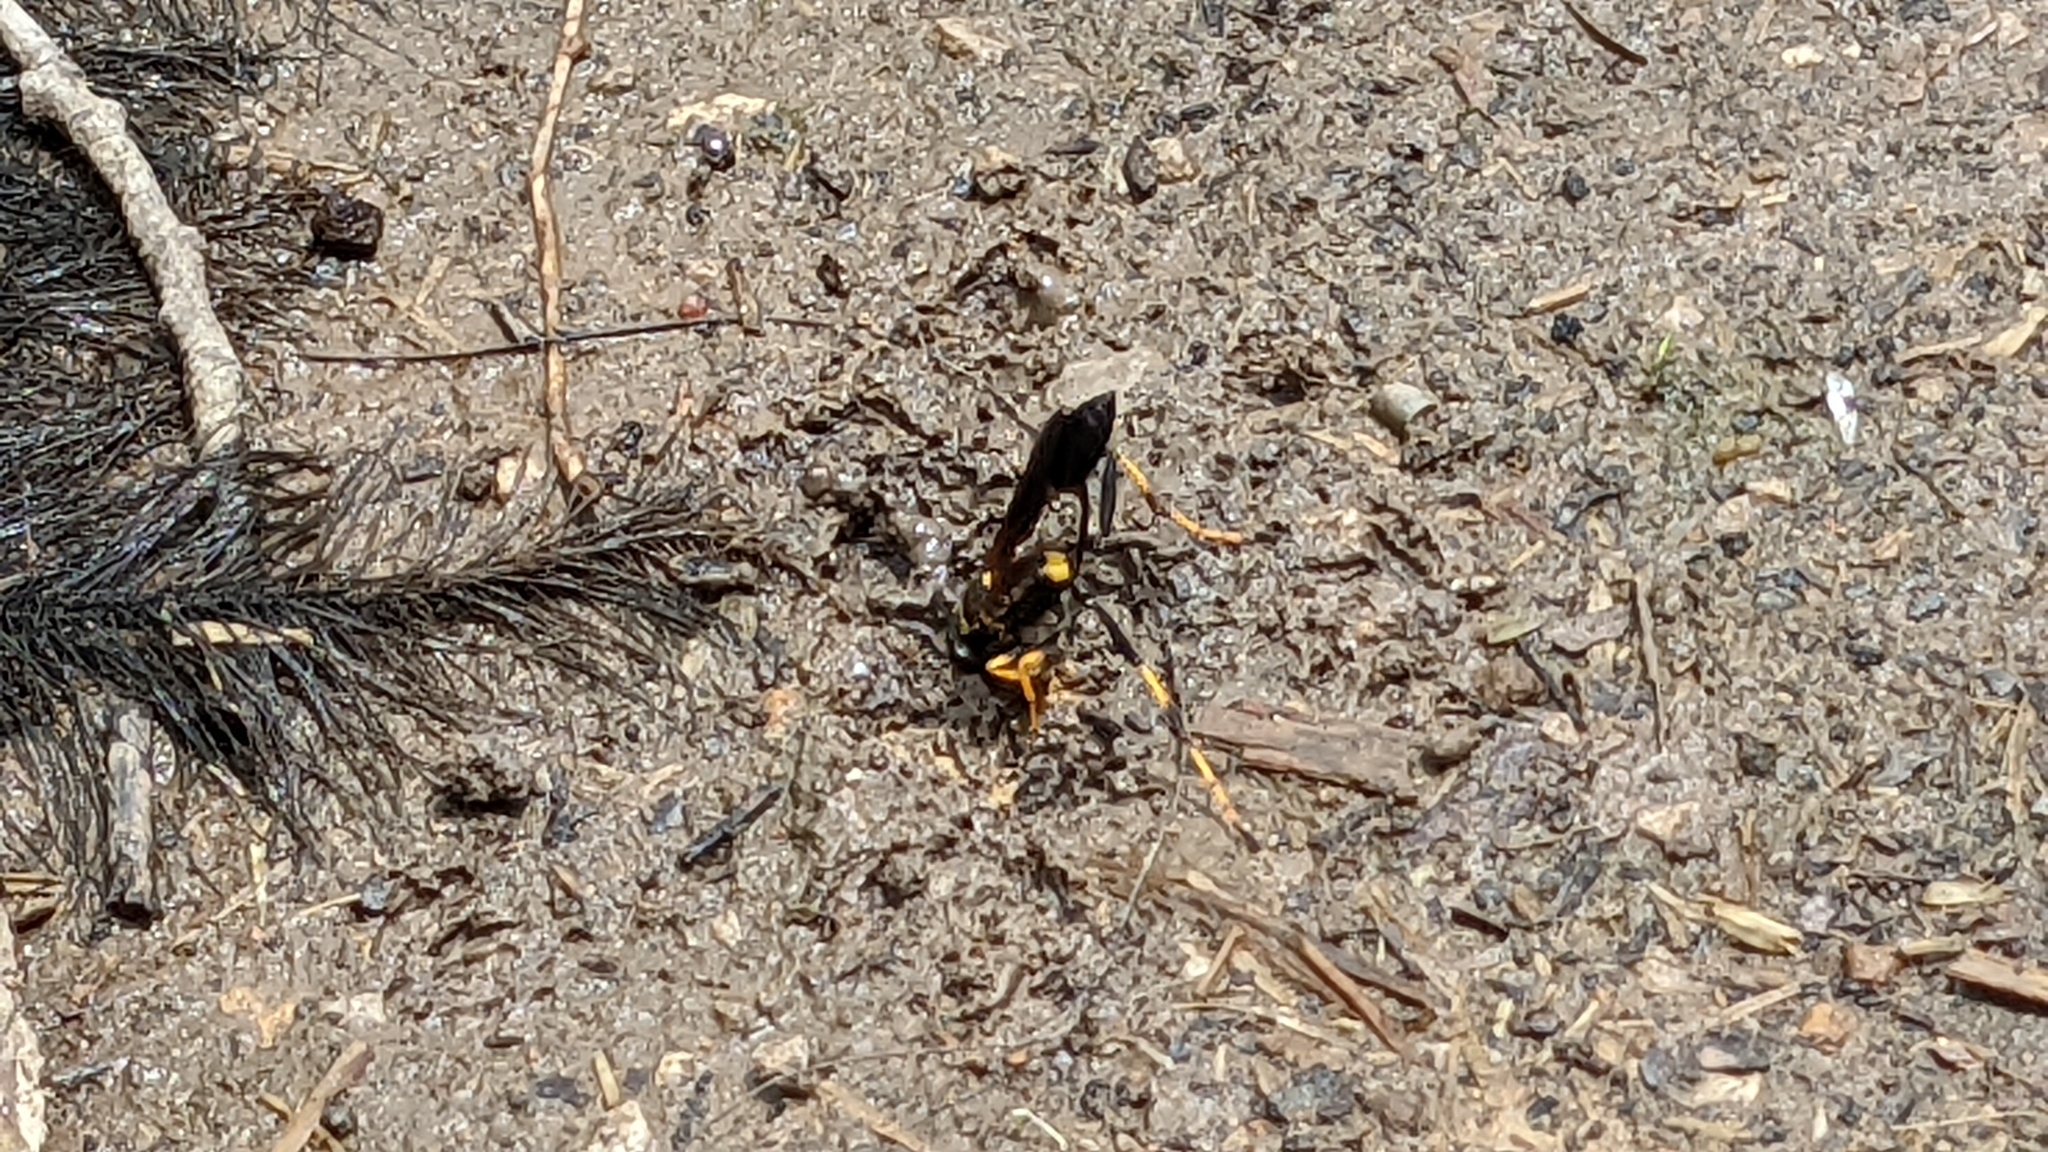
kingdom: Animalia
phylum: Arthropoda
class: Insecta
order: Hymenoptera
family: Sphecidae
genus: Sceliphron
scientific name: Sceliphron caementarium
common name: Mud dauber
